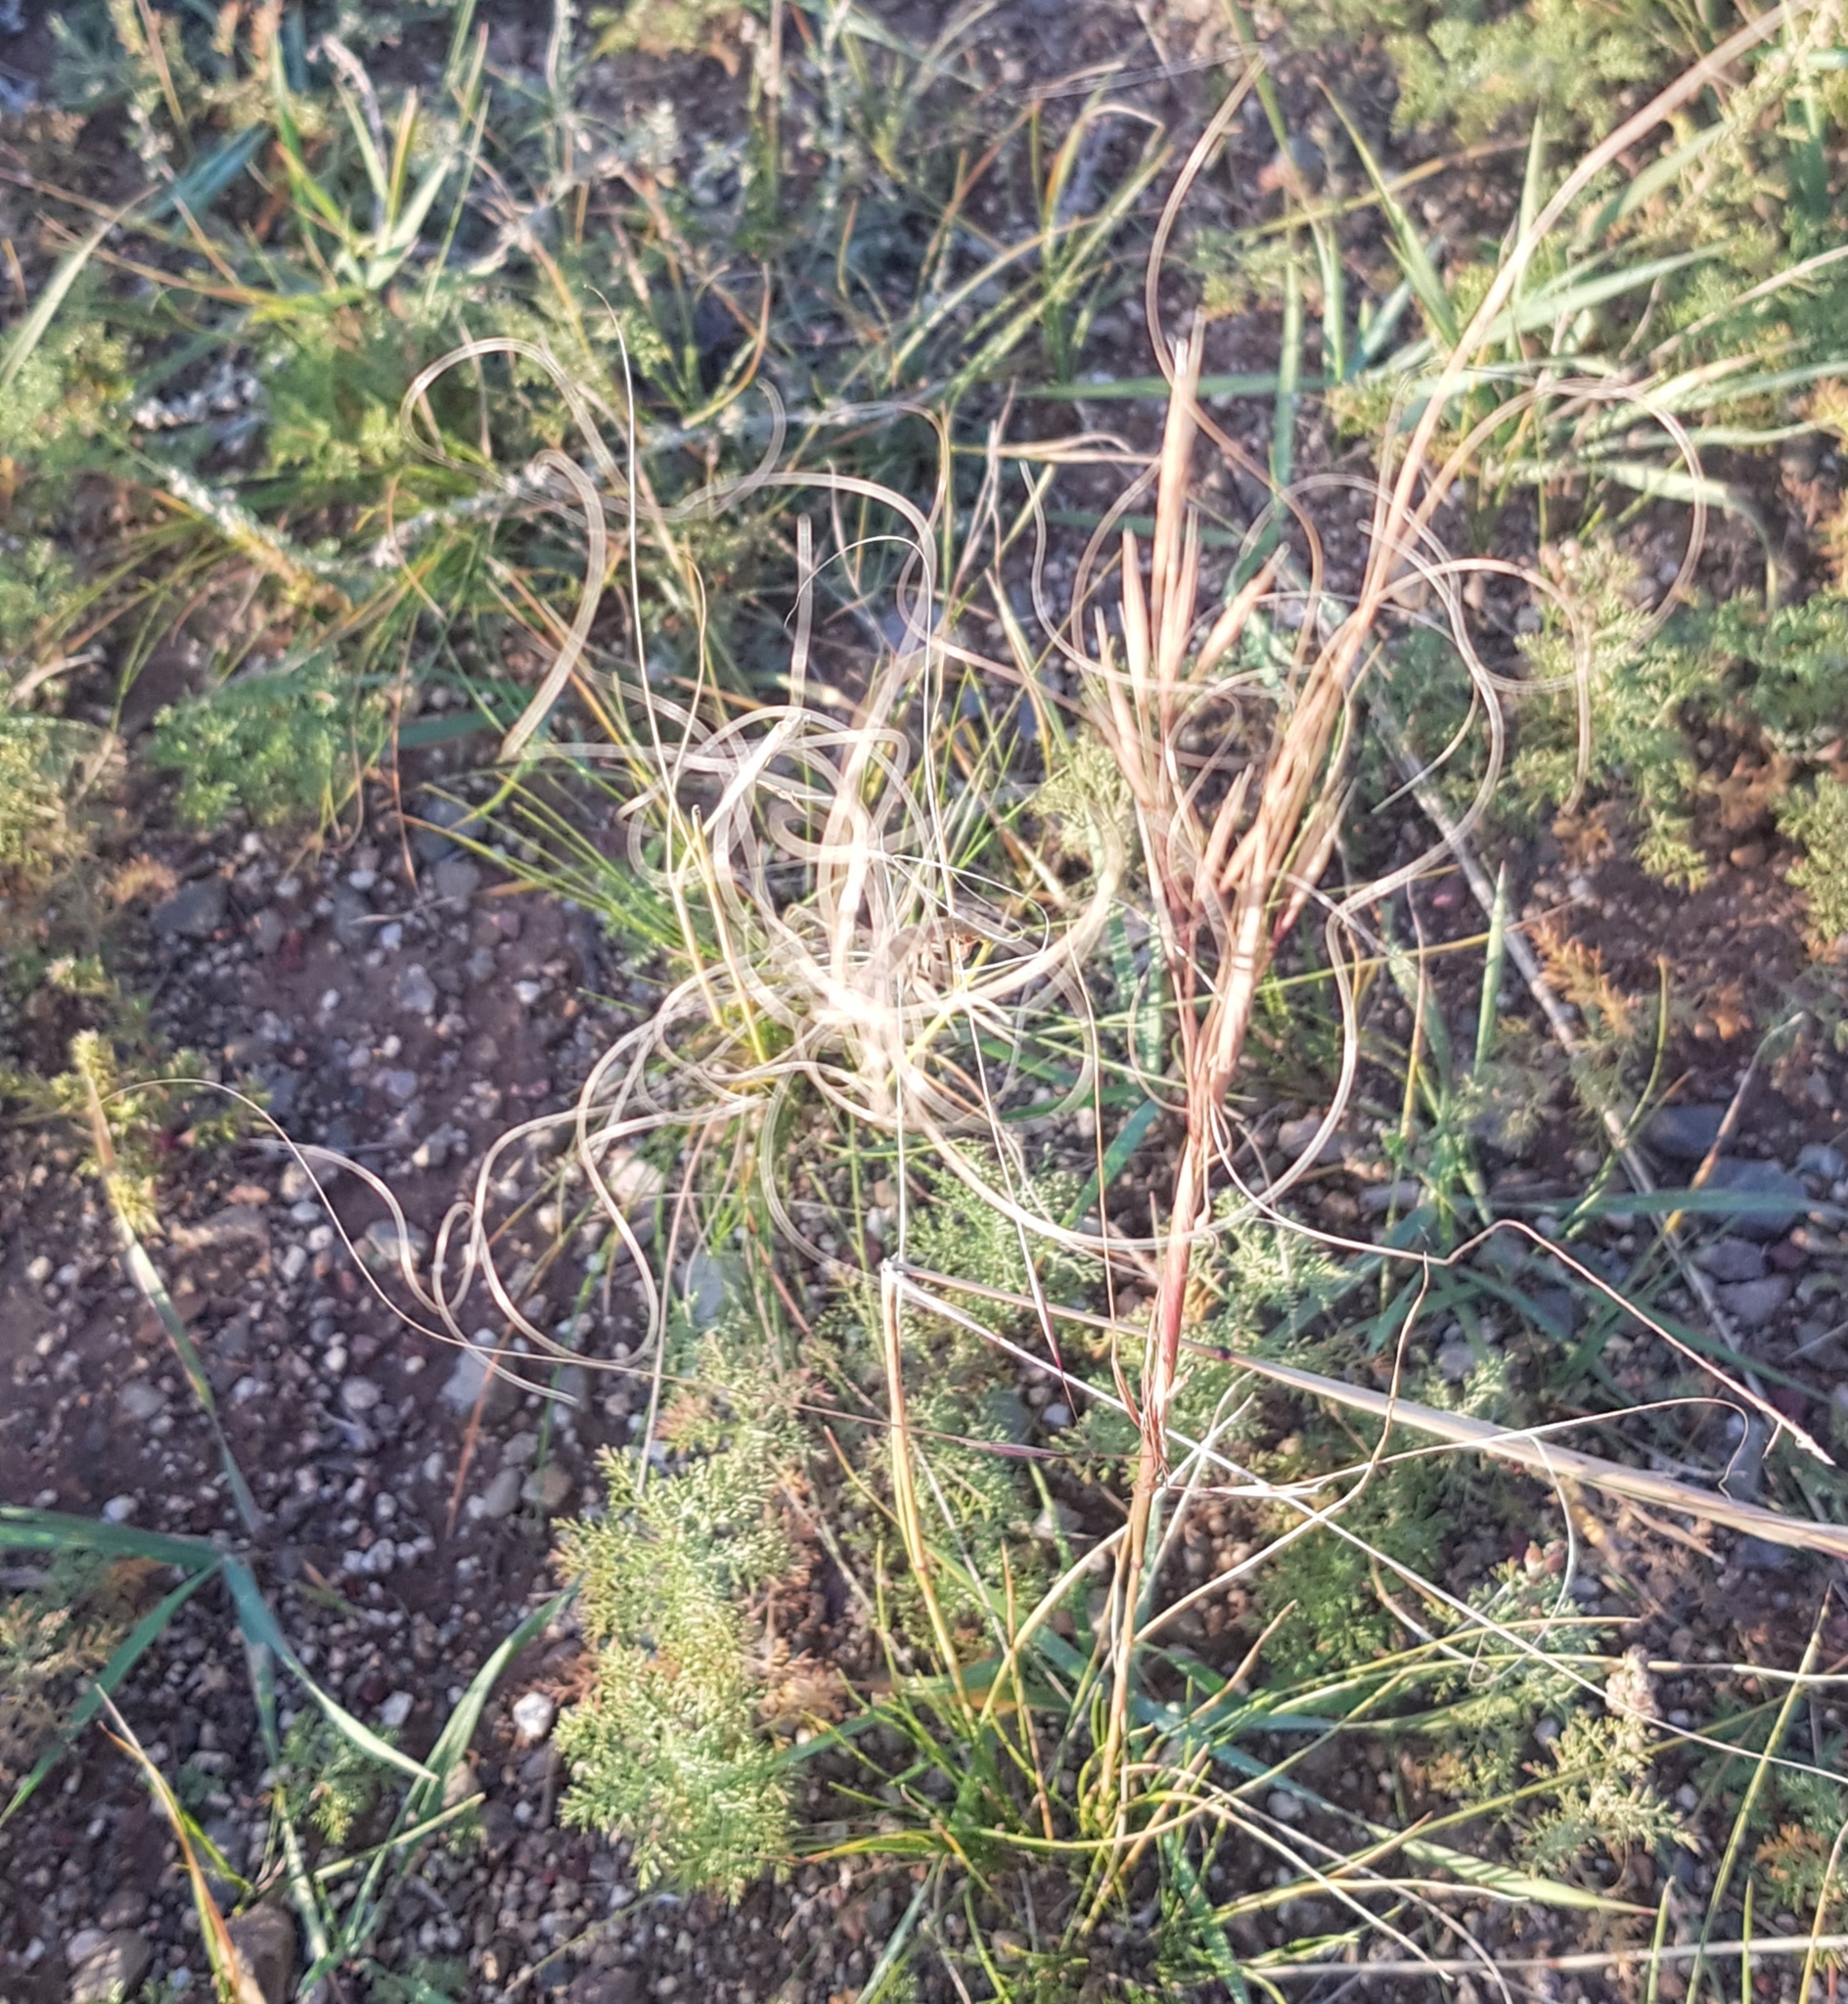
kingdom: Plantae
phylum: Tracheophyta
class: Liliopsida
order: Poales
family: Poaceae
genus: Stipa
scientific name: Stipa krylovii
